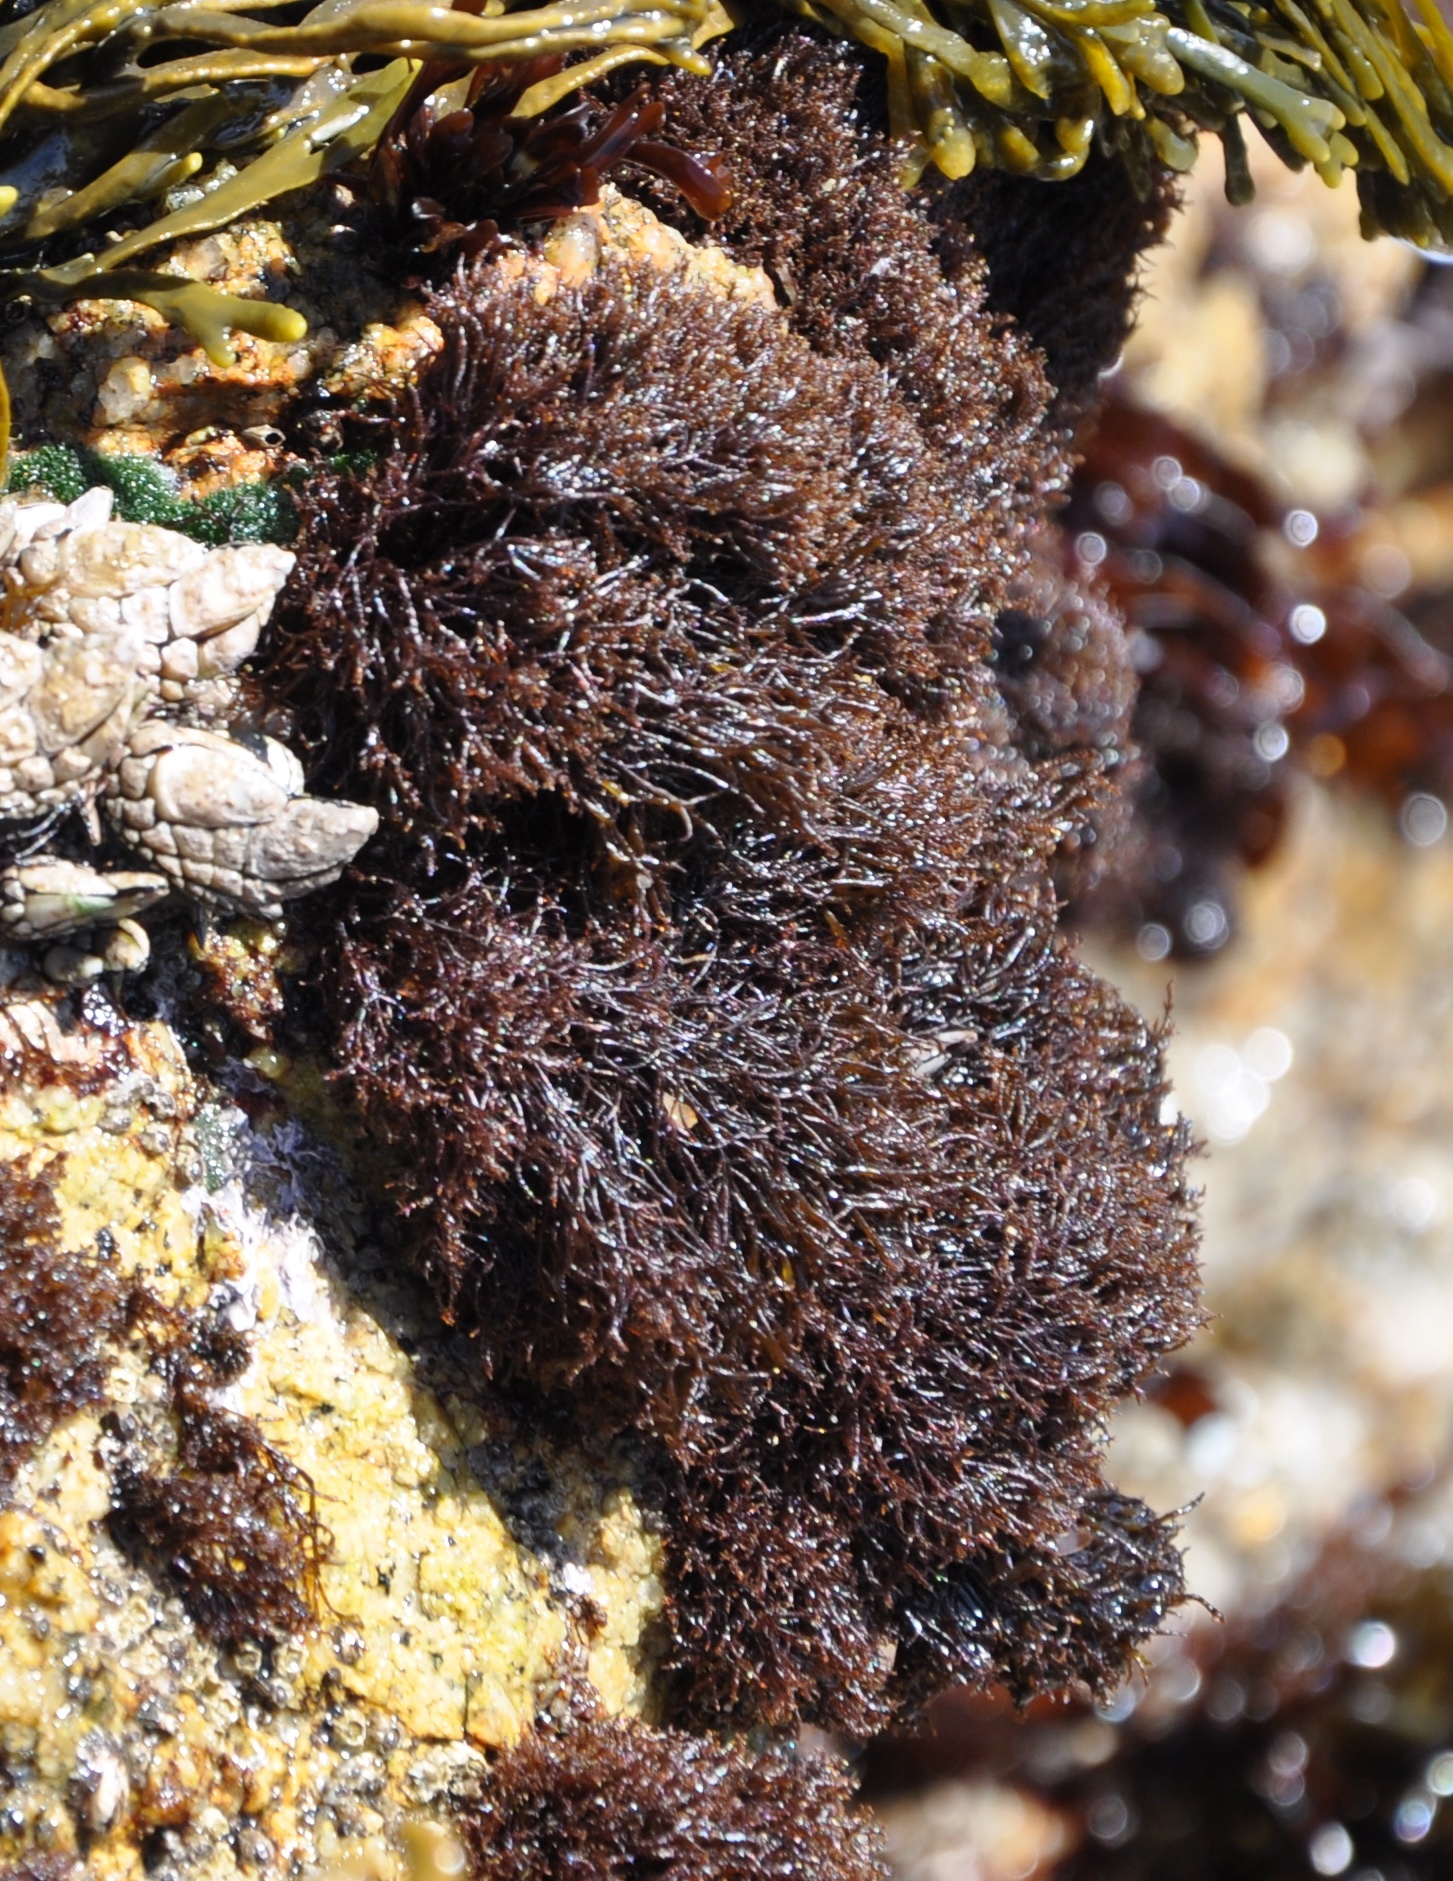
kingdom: Plantae
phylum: Rhodophyta
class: Florideophyceae
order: Gigartinales
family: Endocladiaceae
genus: Endocladia
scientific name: Endocladia muricata
